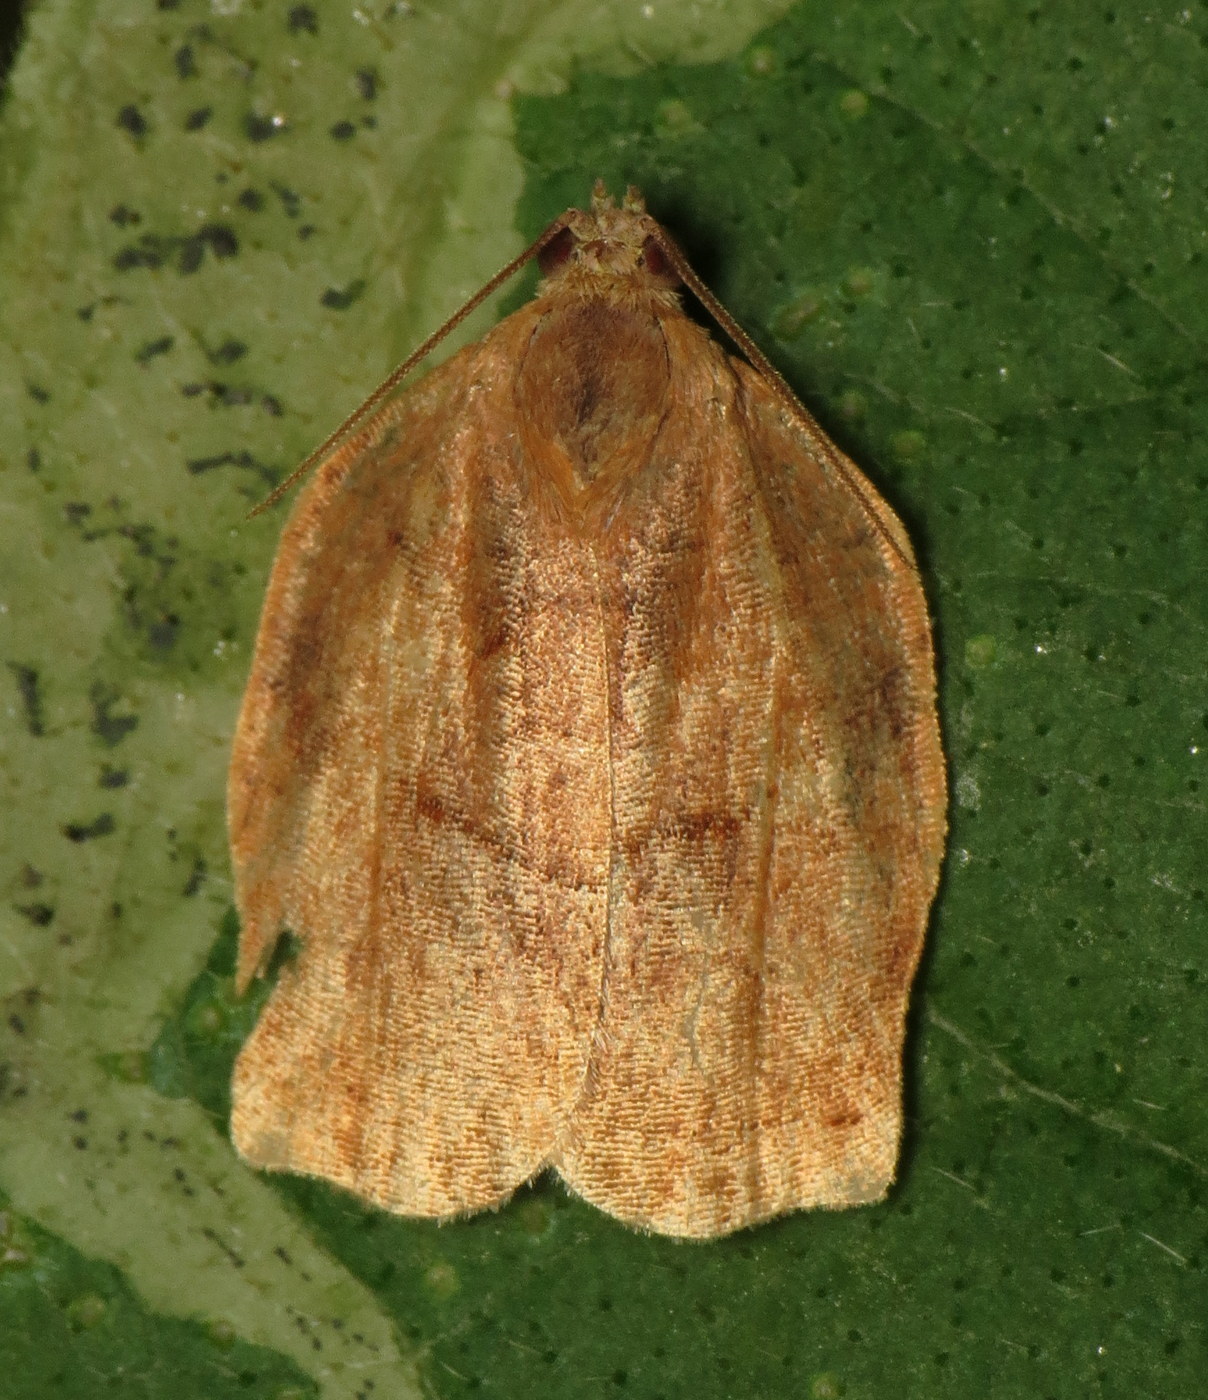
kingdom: Animalia
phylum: Arthropoda
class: Insecta
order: Lepidoptera
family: Tortricidae
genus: Archips
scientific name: Archips purpurana
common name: Omnivorous leafroller
